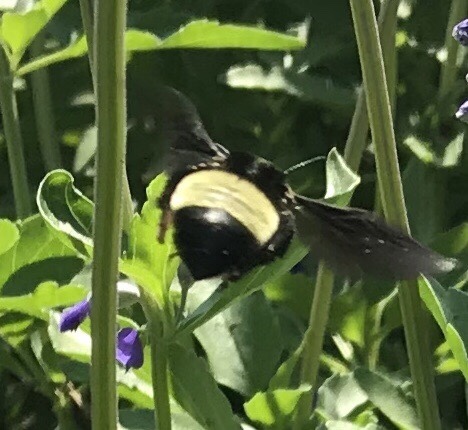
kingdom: Animalia
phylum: Arthropoda
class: Insecta
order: Hymenoptera
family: Apidae
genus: Bombus
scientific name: Bombus pensylvanicus
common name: Bumble bee
